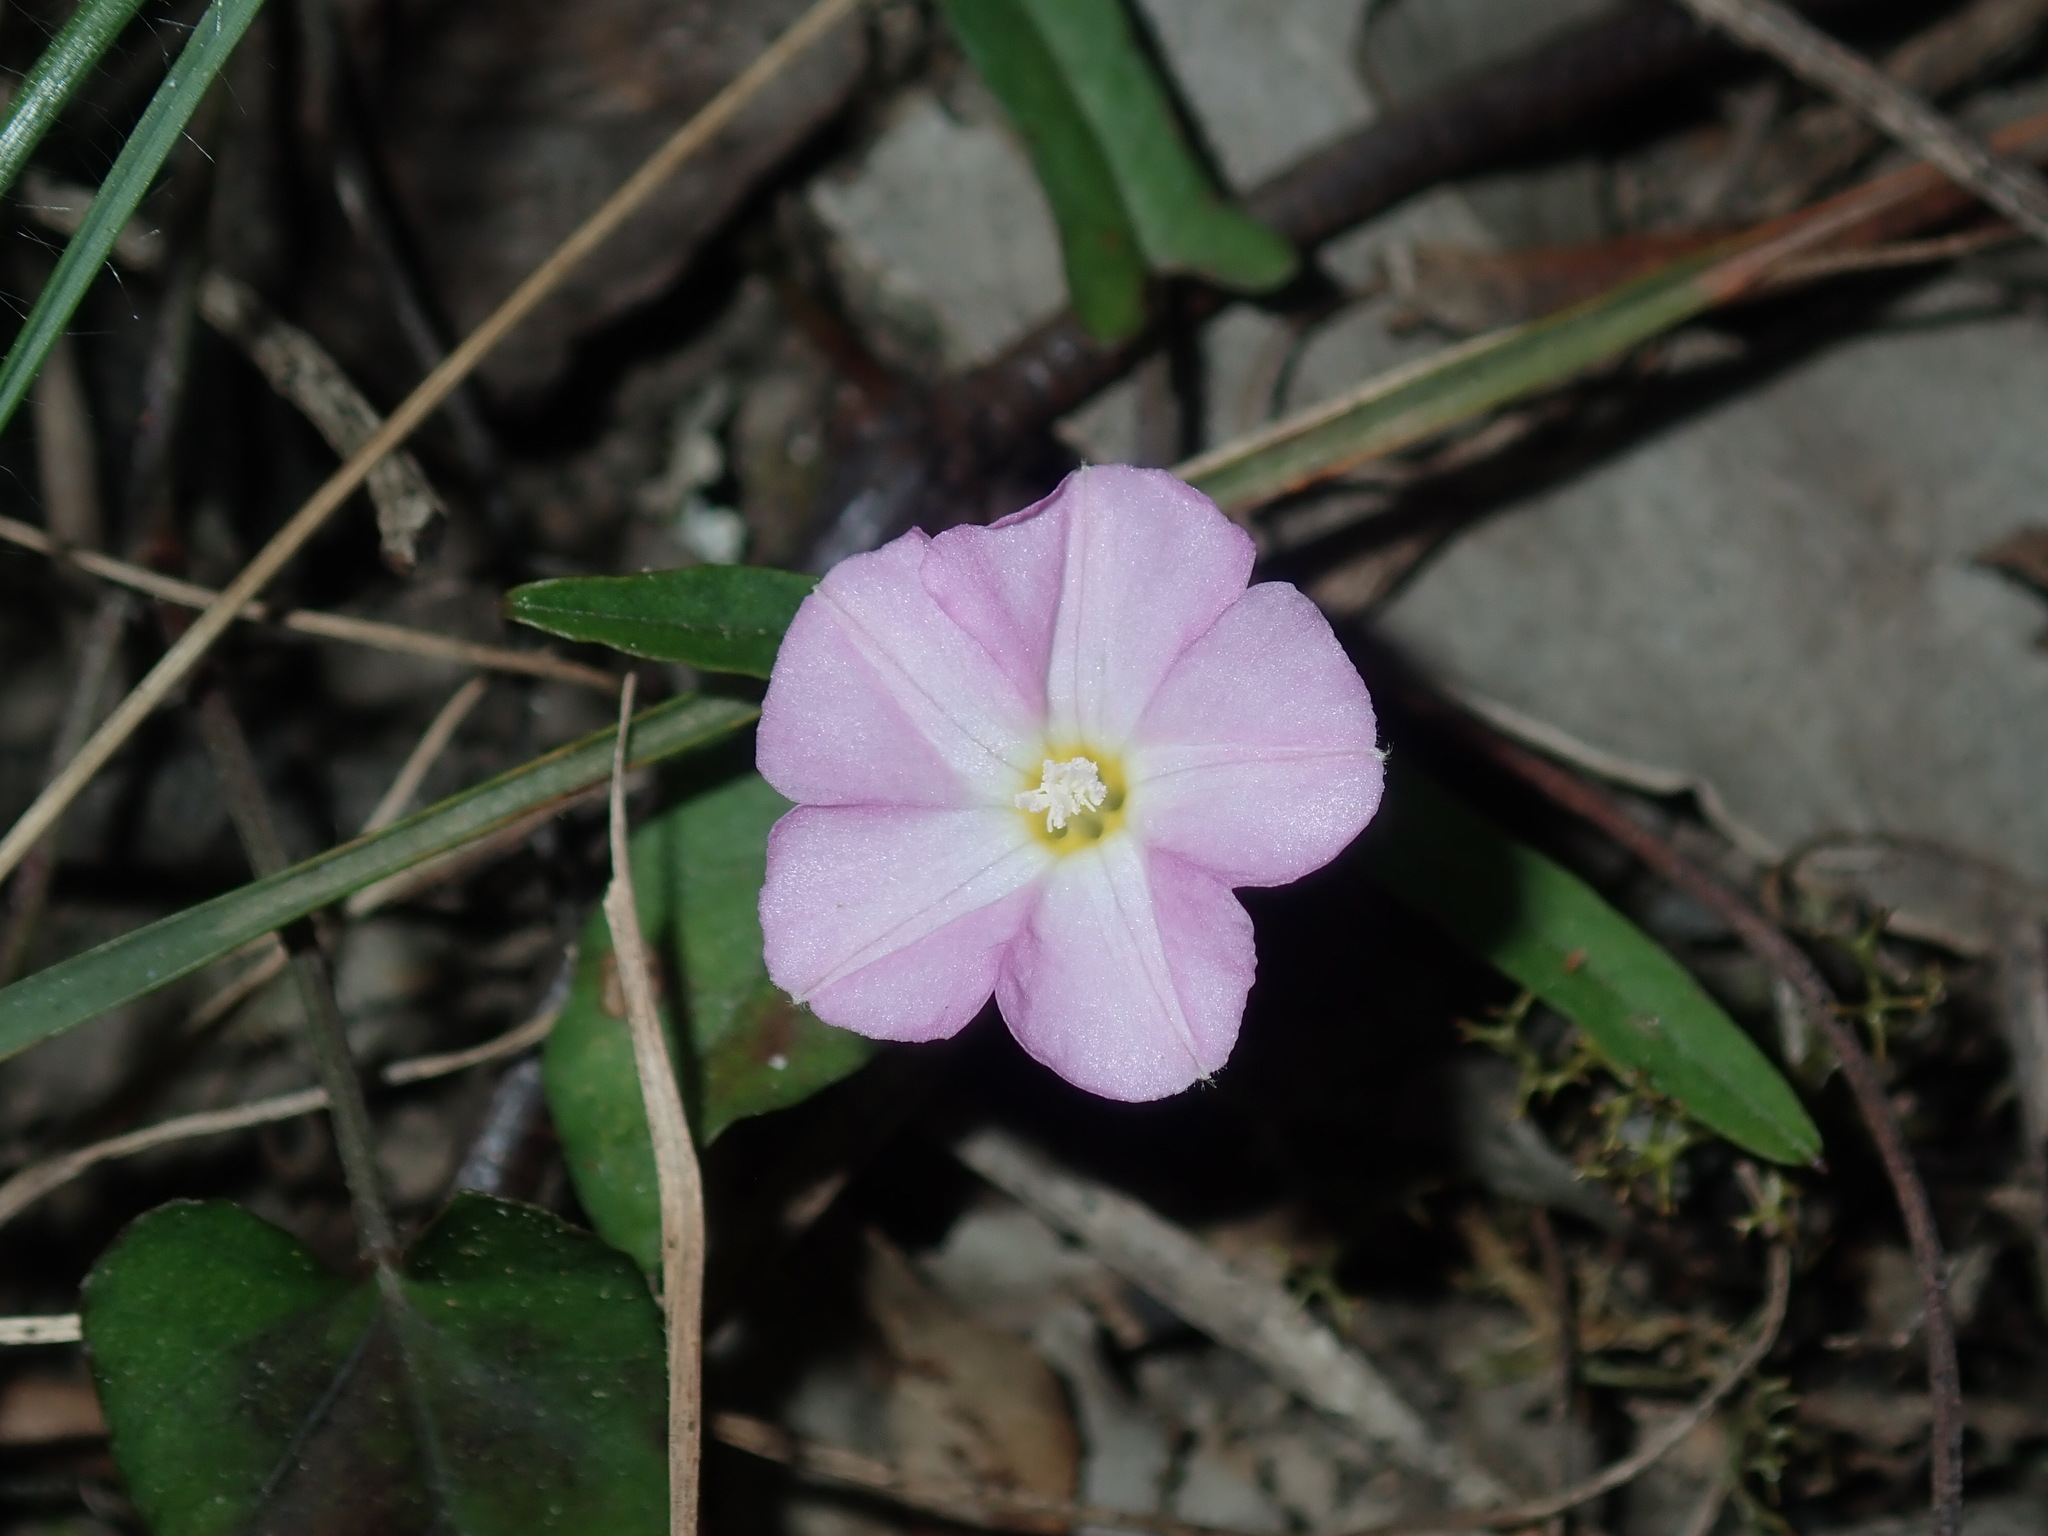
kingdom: Plantae
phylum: Tracheophyta
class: Magnoliopsida
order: Solanales
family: Convolvulaceae
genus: Polymeria
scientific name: Polymeria calycina
